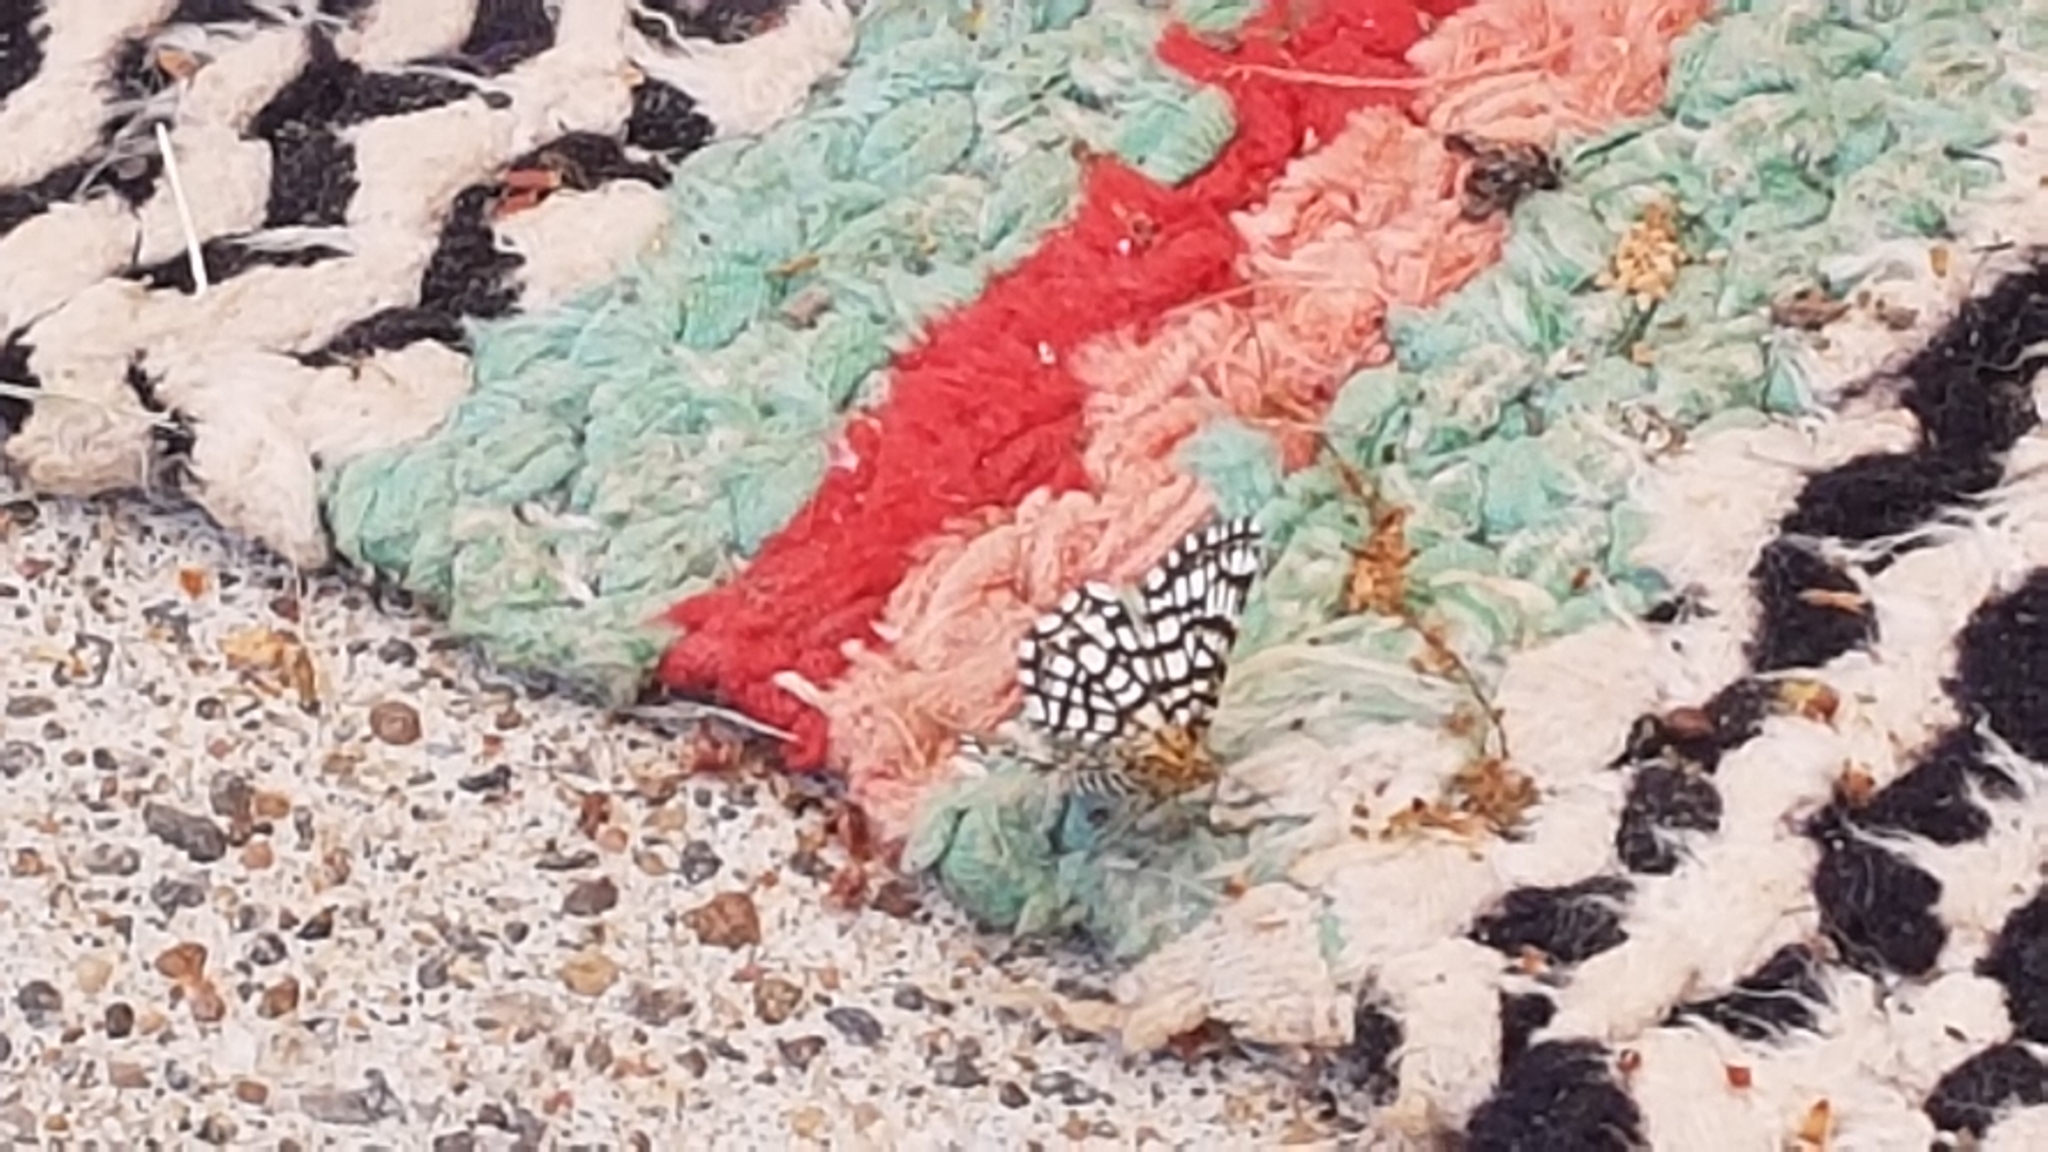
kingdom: Animalia
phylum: Arthropoda
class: Insecta
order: Lepidoptera
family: Geometridae
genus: Chiasmia
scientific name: Chiasmia clathrata
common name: Latticed heath
